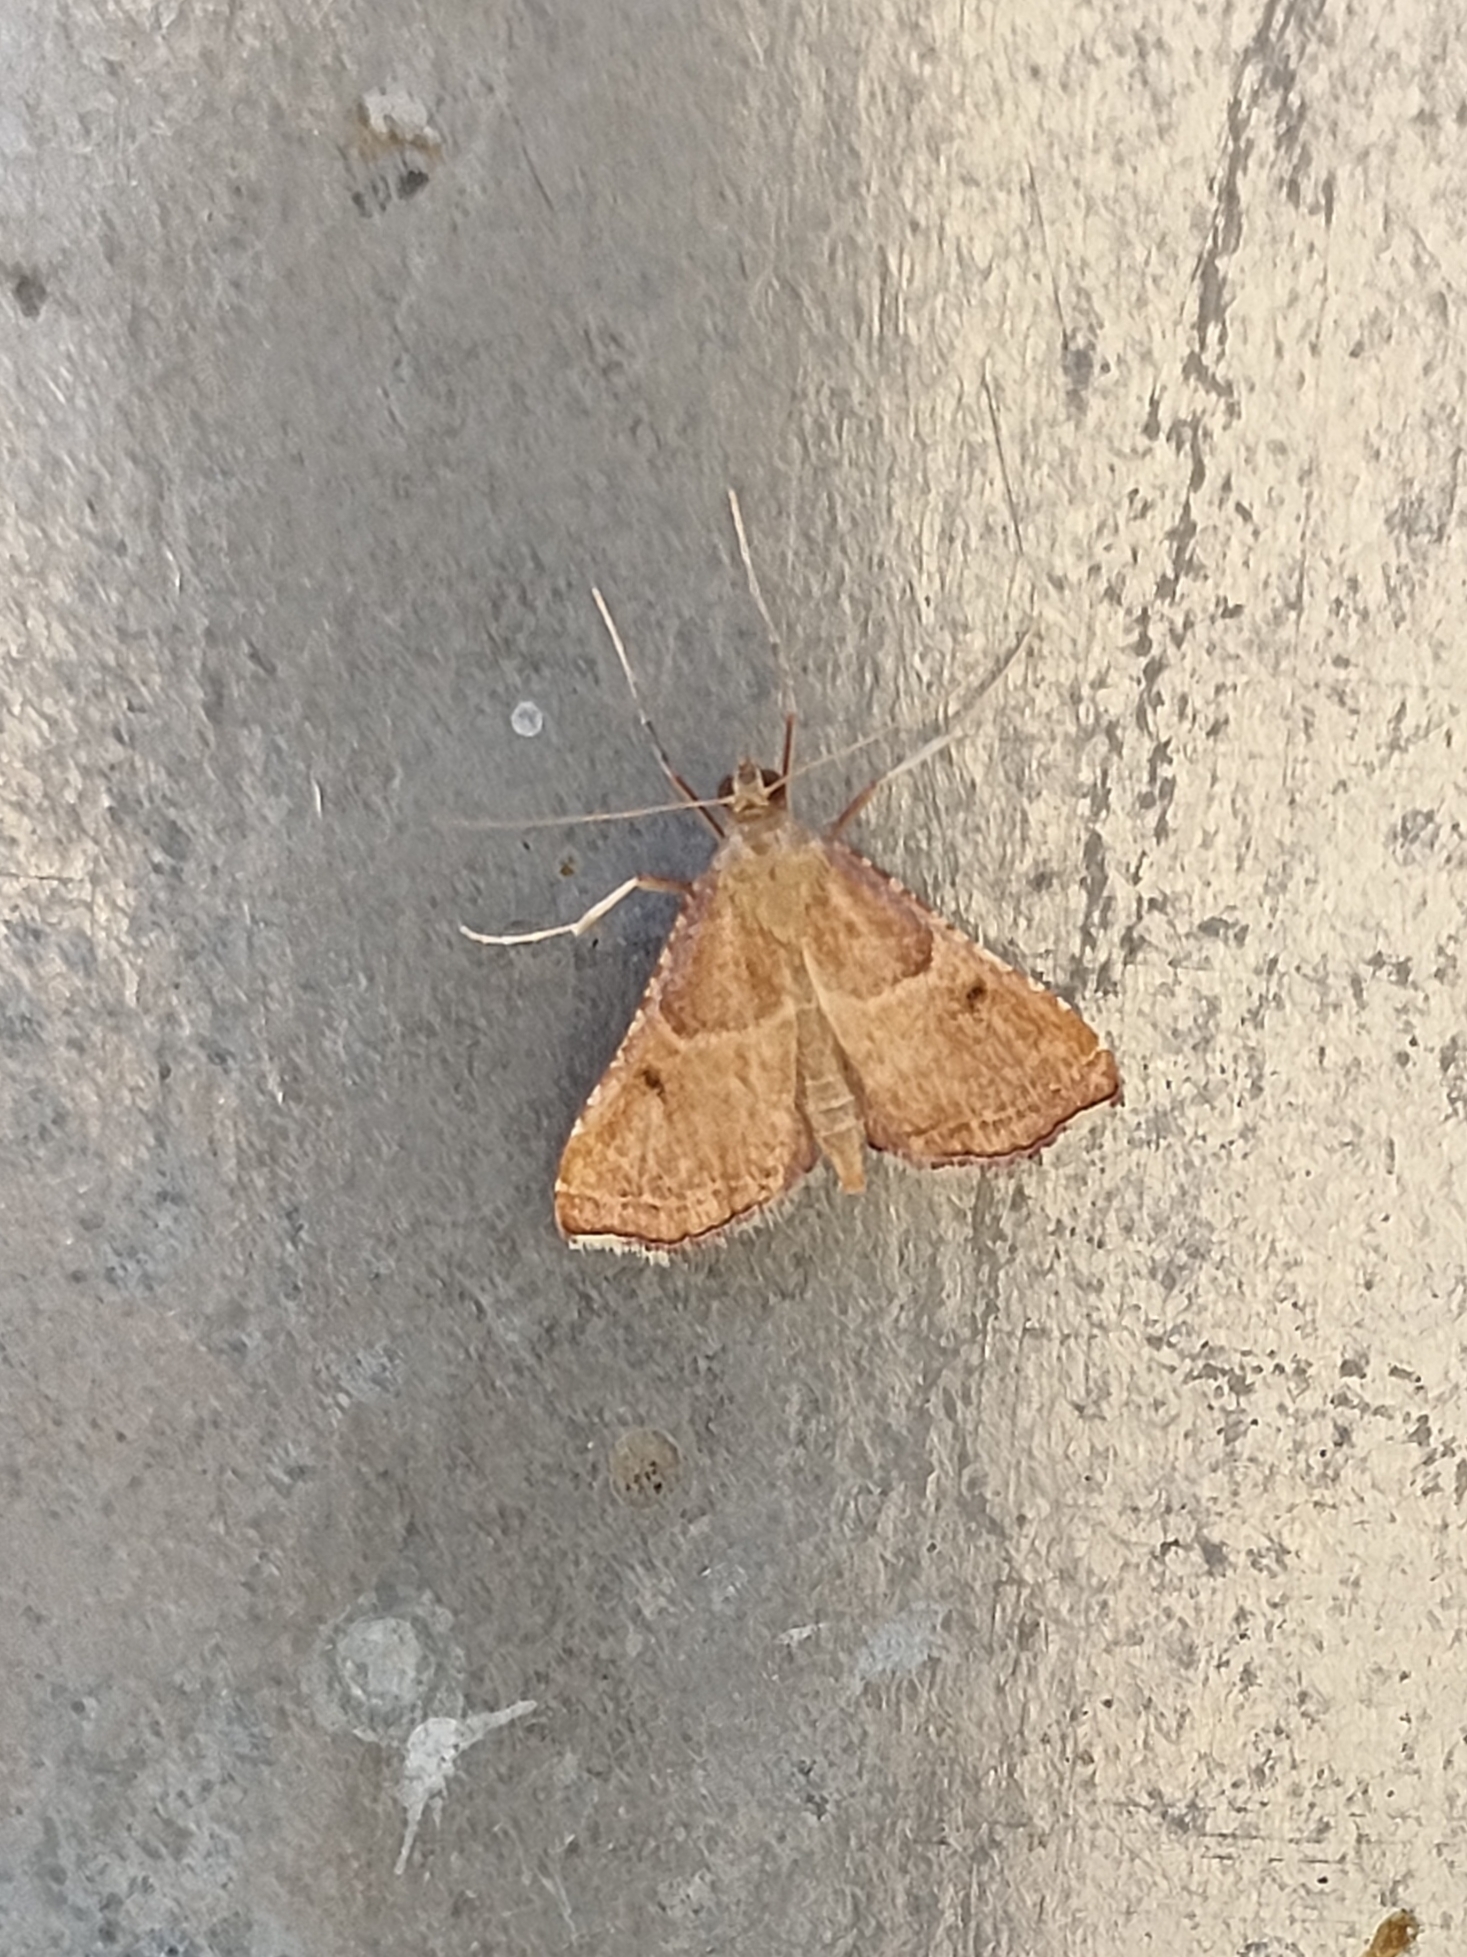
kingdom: Animalia
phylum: Arthropoda
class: Insecta
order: Lepidoptera
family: Pyralidae
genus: Endotricha
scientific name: Endotricha flammealis
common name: Rosy tabby
